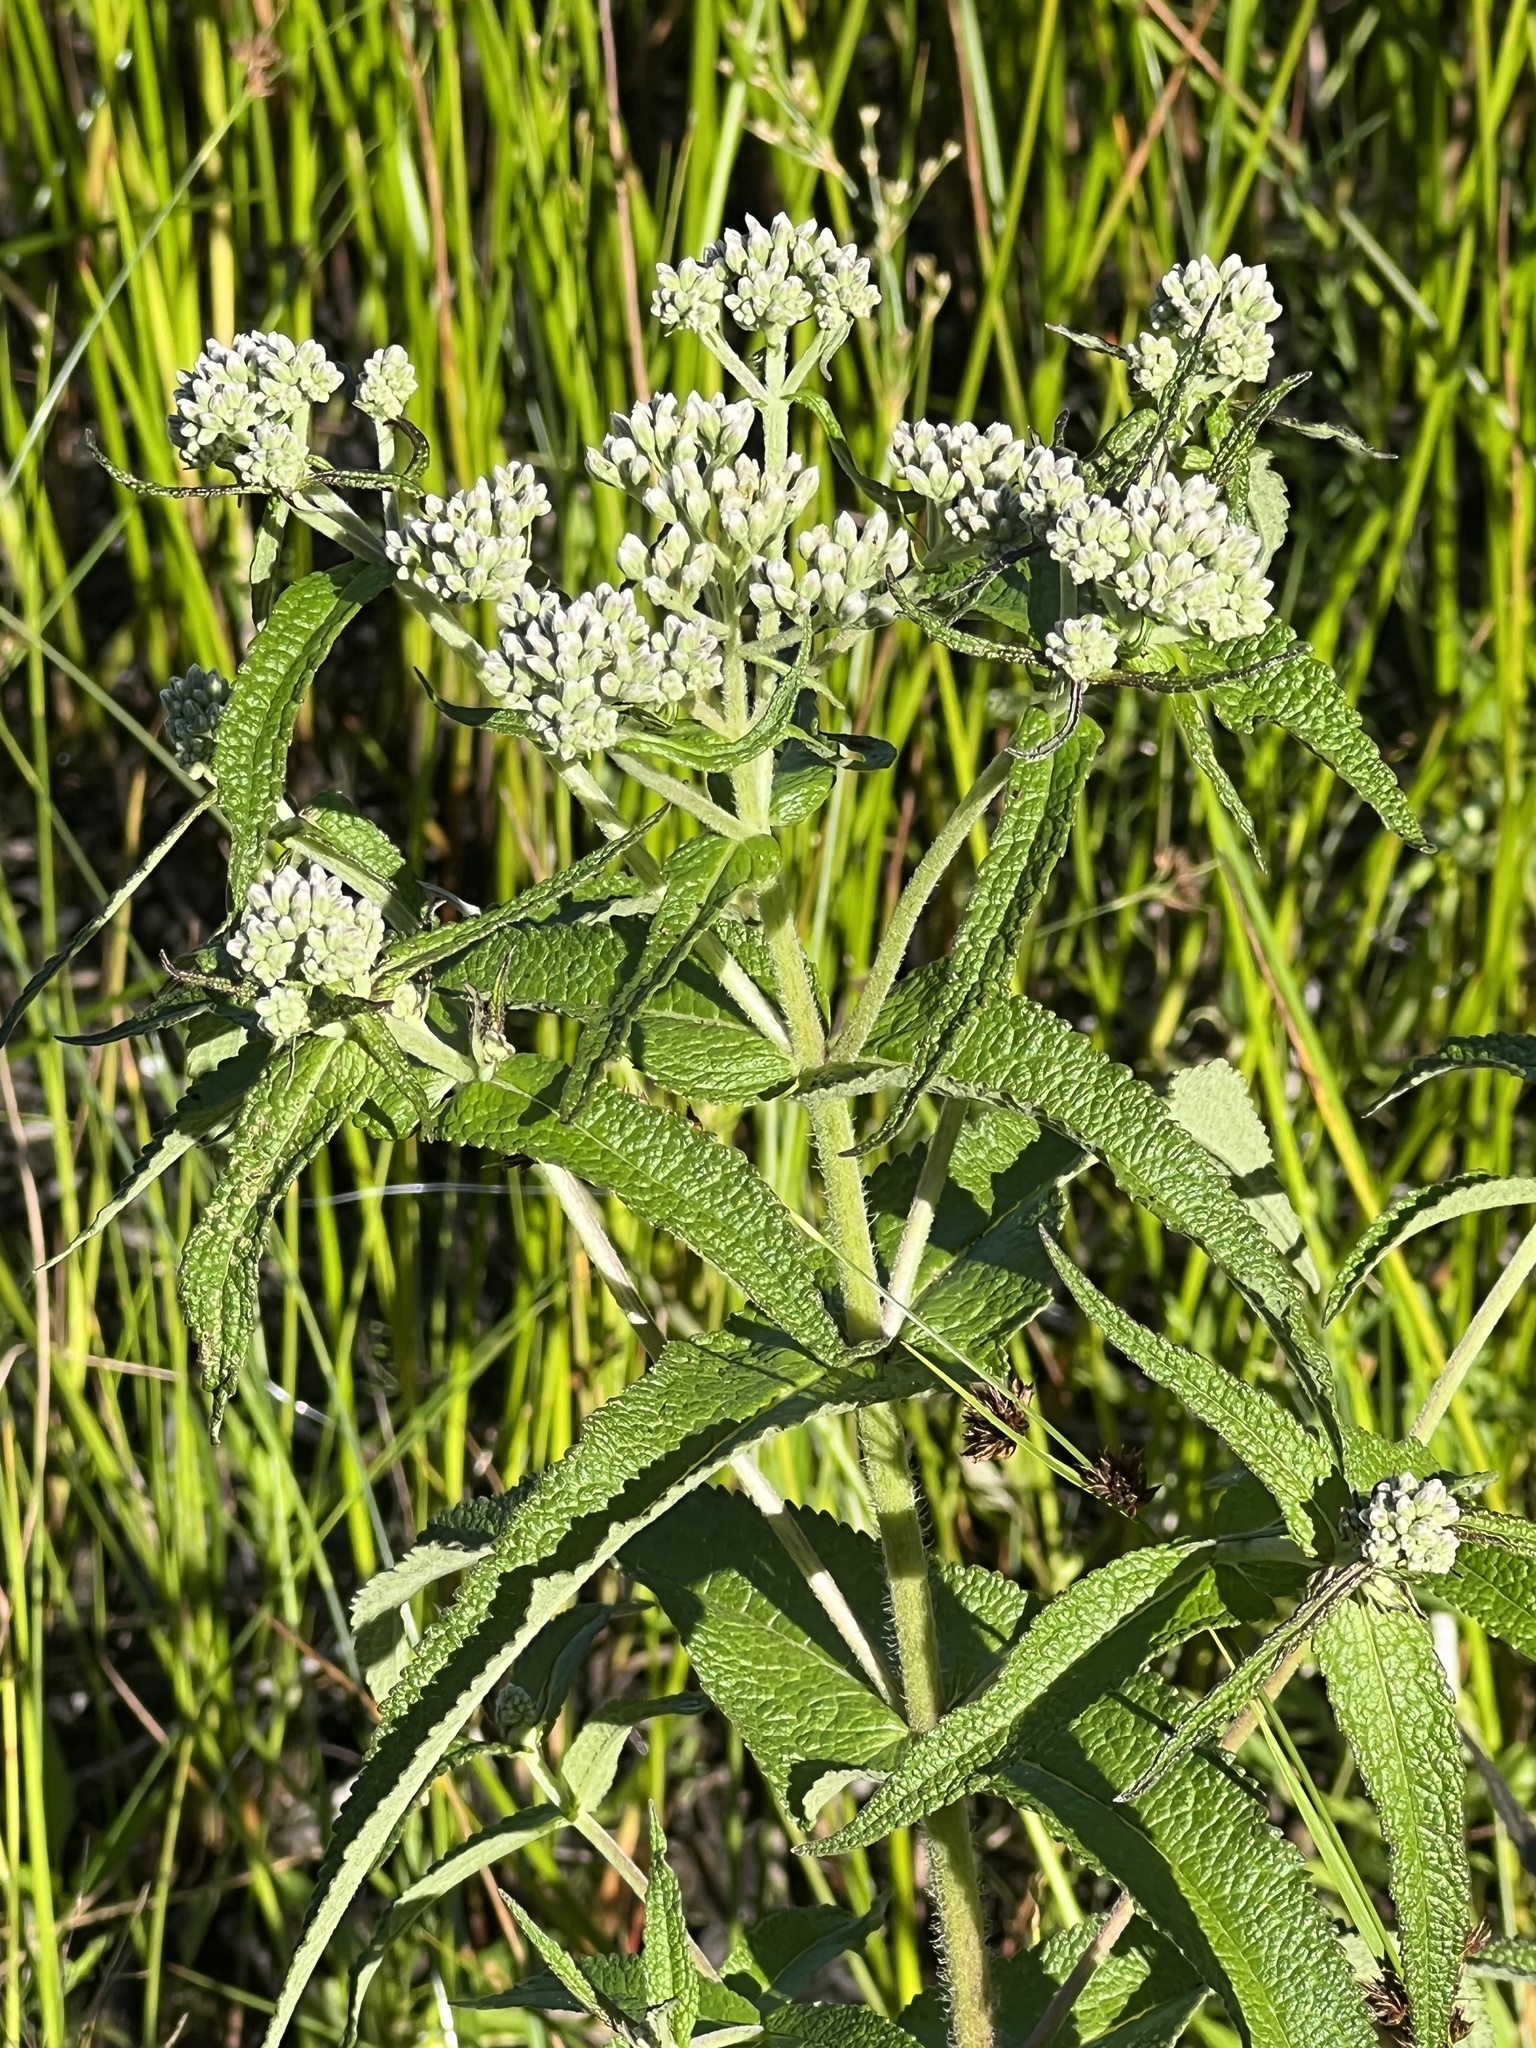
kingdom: Plantae
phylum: Tracheophyta
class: Magnoliopsida
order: Asterales
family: Asteraceae
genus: Eupatorium
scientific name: Eupatorium perfoliatum
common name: Boneset
